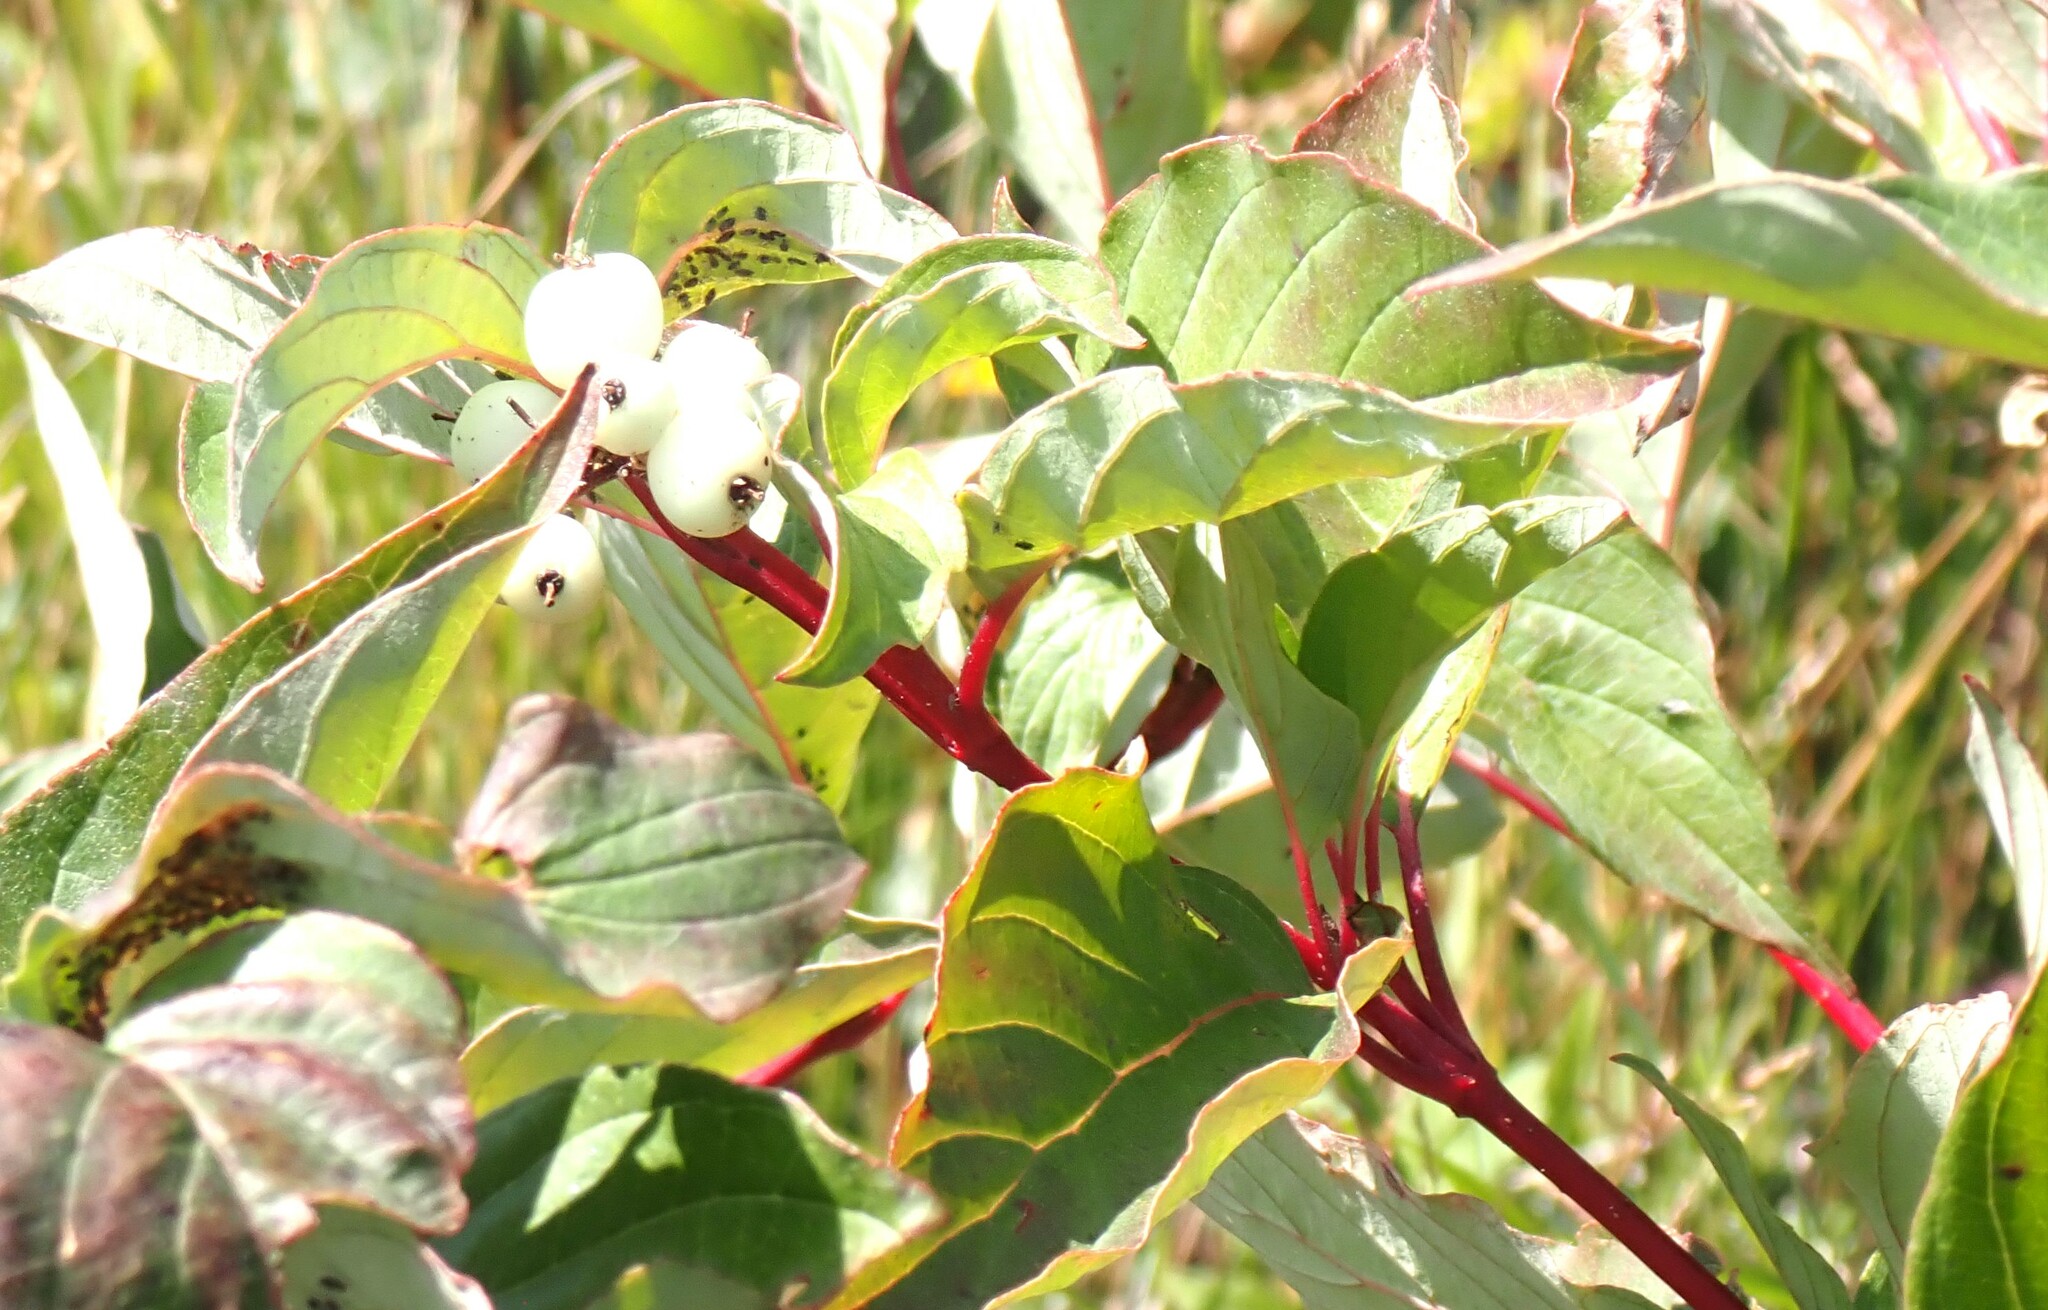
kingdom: Plantae
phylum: Tracheophyta
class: Magnoliopsida
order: Cornales
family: Cornaceae
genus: Cornus
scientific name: Cornus sericea
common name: Red-osier dogwood
